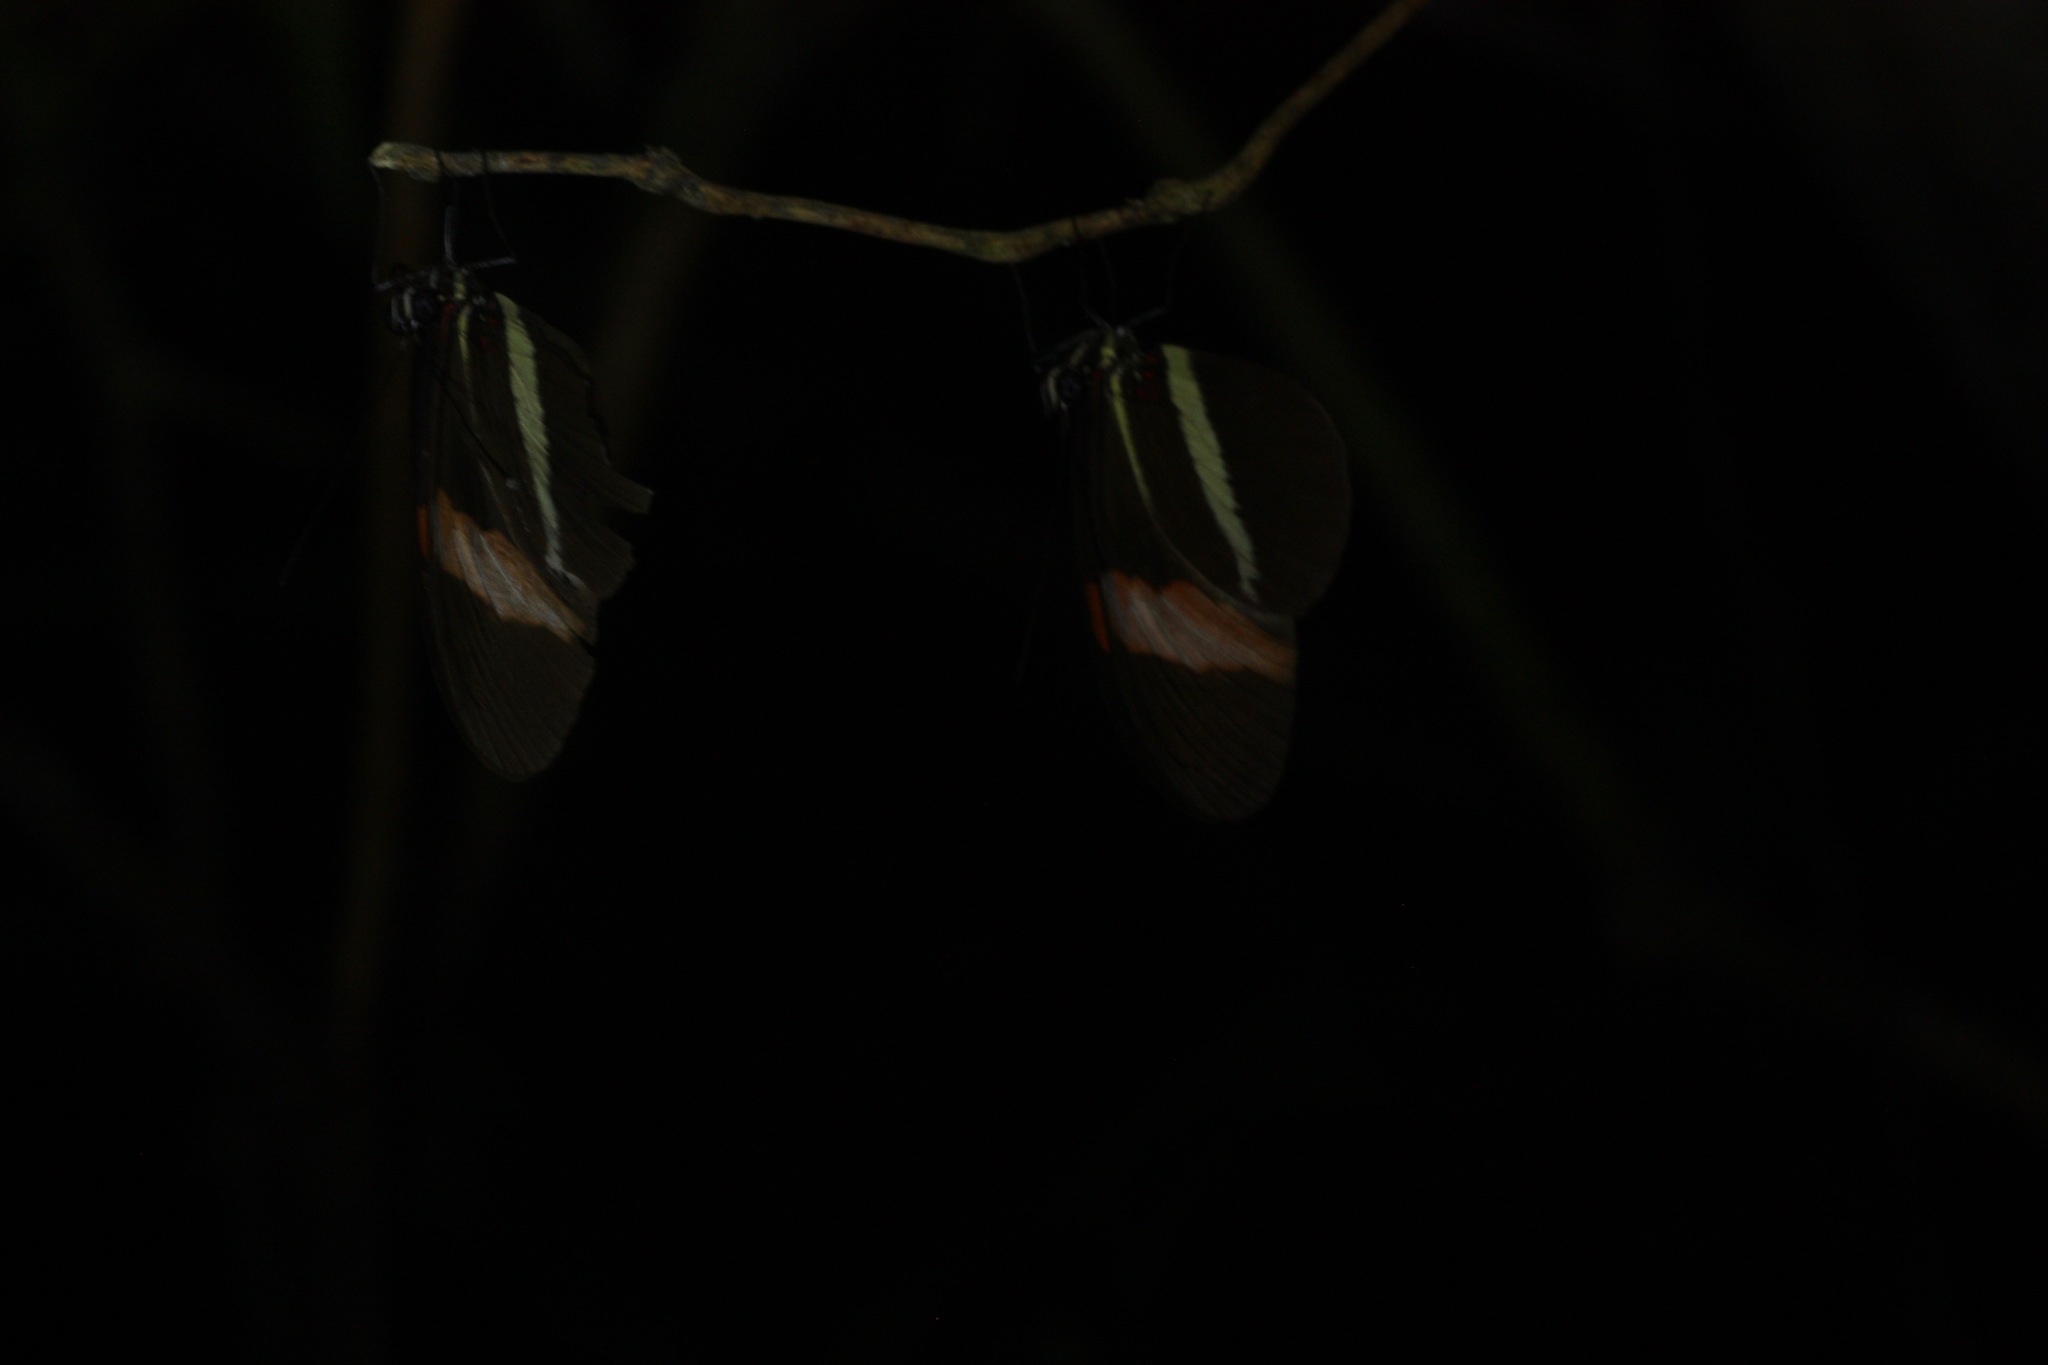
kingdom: Animalia
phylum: Arthropoda
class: Insecta
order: Lepidoptera
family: Nymphalidae
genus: Heliconius
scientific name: Heliconius erato
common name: Common patch longwing
